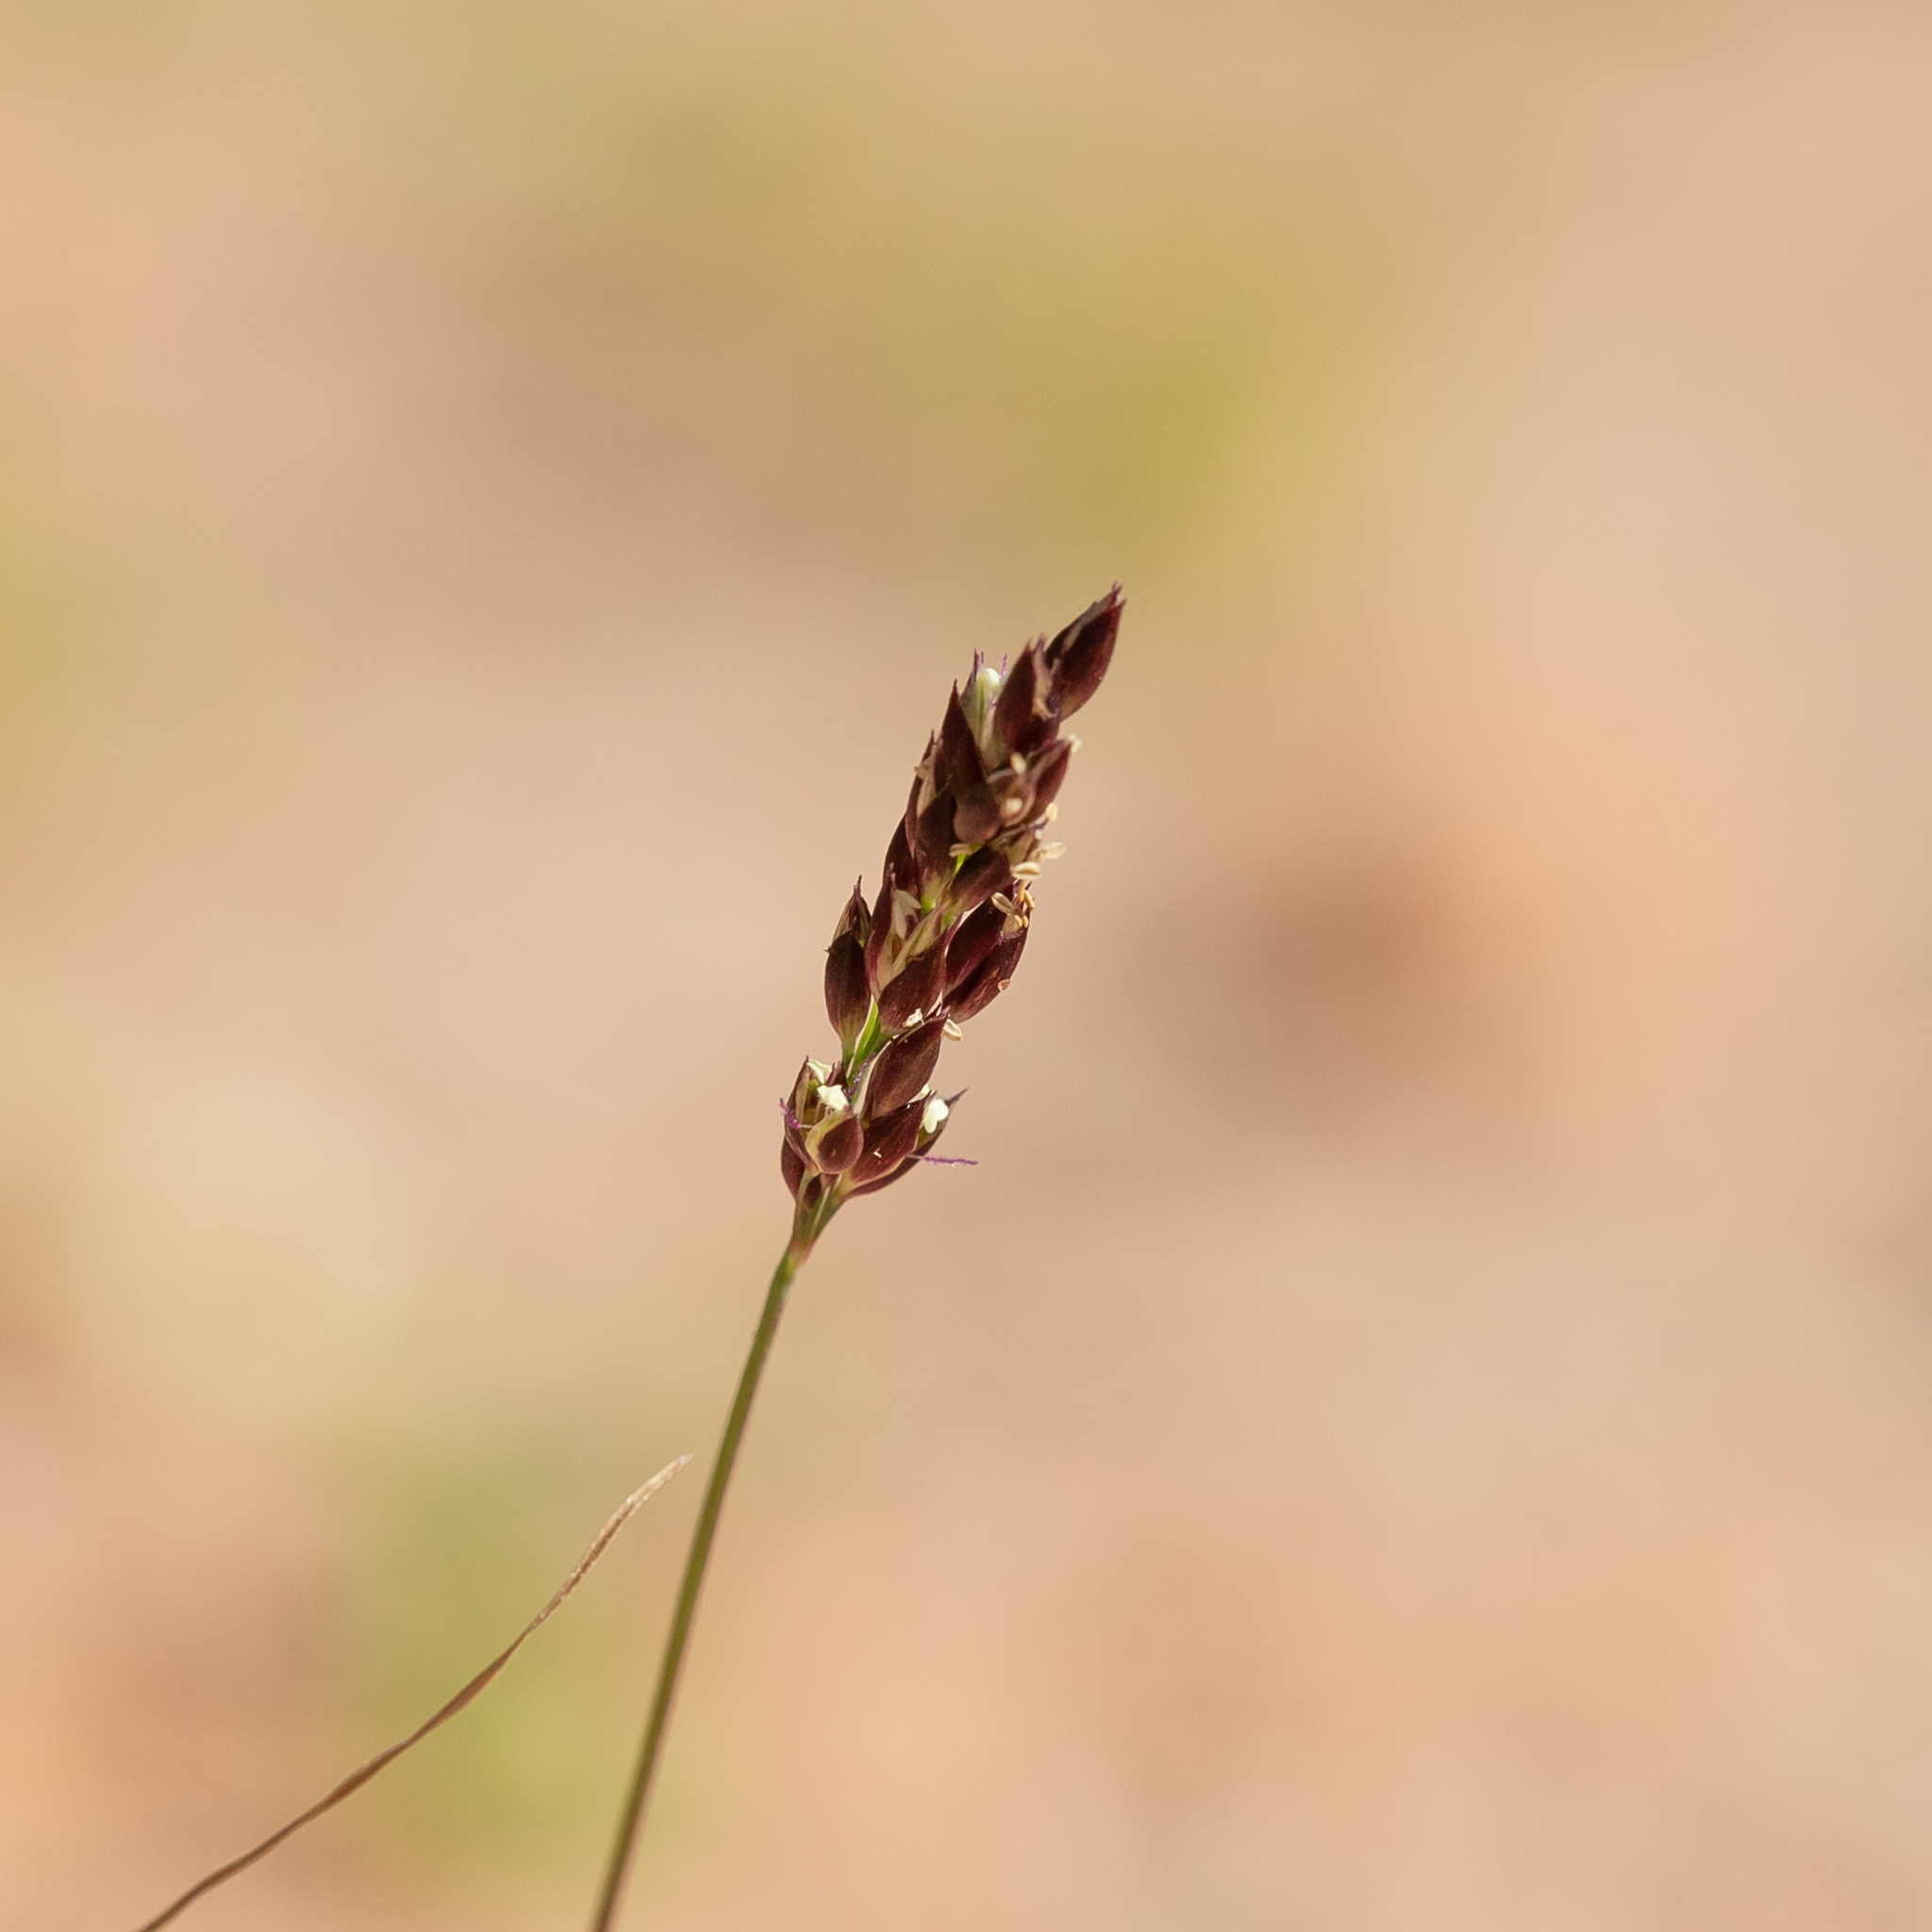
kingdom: Plantae
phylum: Tracheophyta
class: Liliopsida
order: Poales
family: Poaceae
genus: Eriachne
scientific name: Eriachne pulchella
